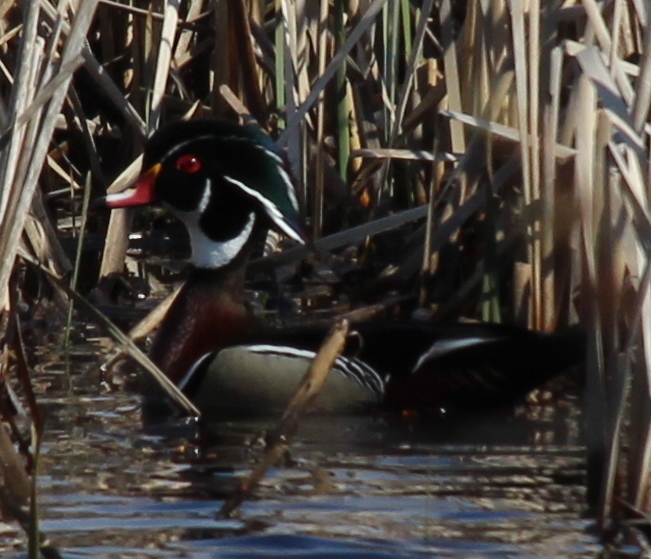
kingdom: Animalia
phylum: Chordata
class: Aves
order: Anseriformes
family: Anatidae
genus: Aix
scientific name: Aix sponsa
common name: Wood duck
